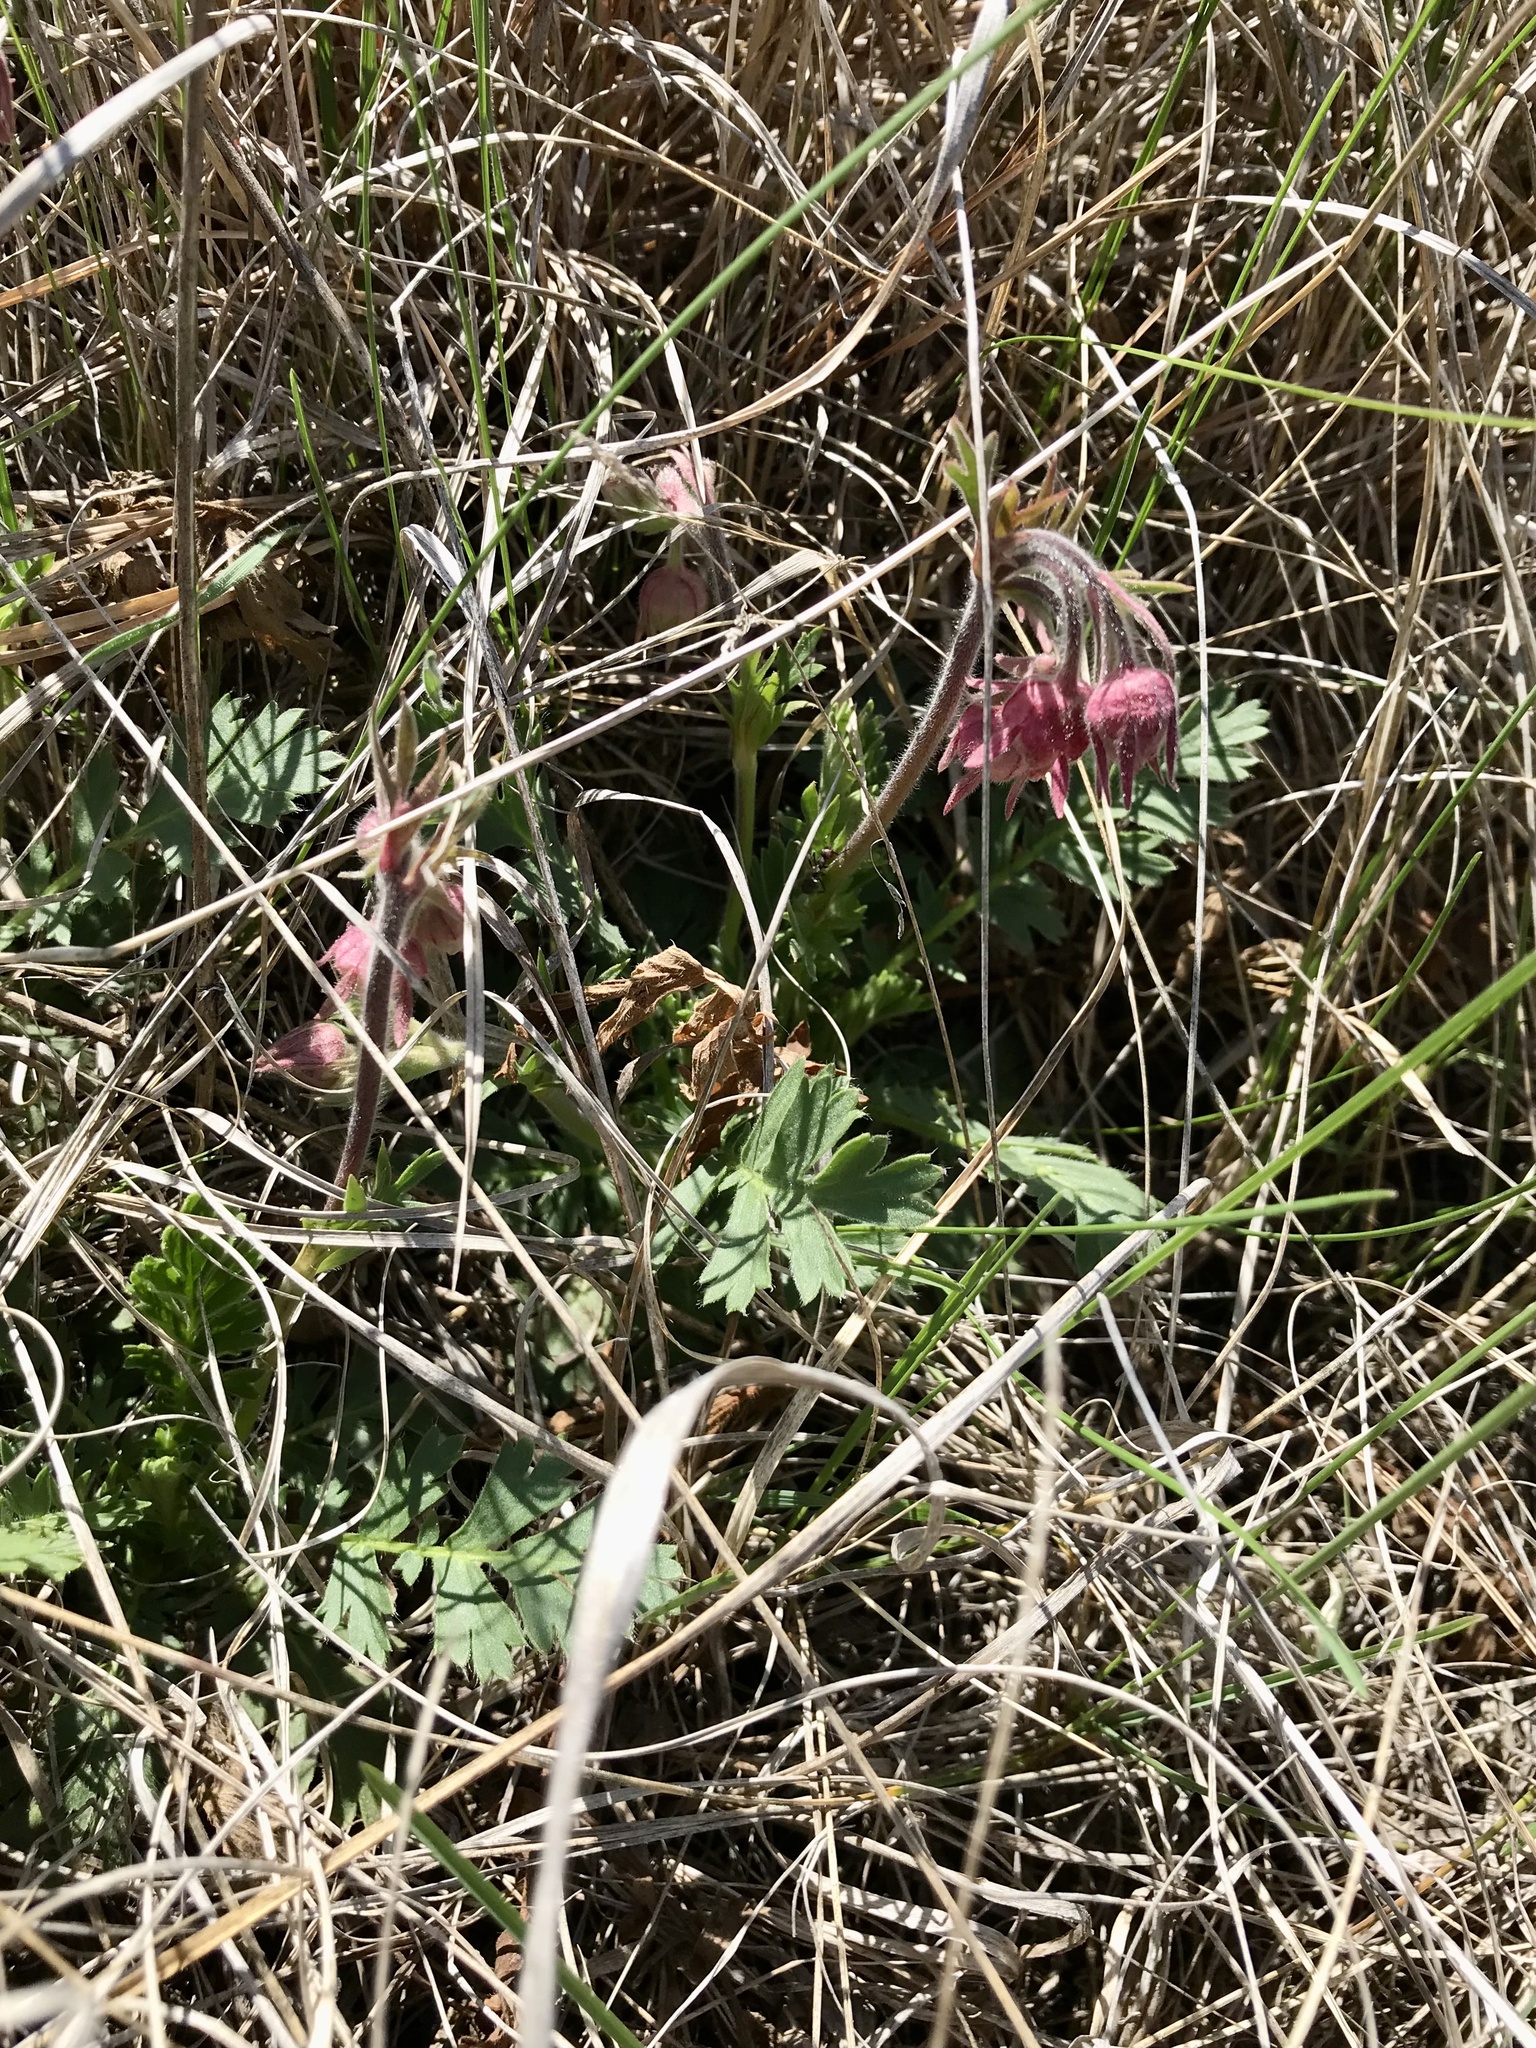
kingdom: Plantae
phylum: Tracheophyta
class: Magnoliopsida
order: Rosales
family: Rosaceae
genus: Geum
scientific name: Geum triflorum
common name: Old man's whiskers
